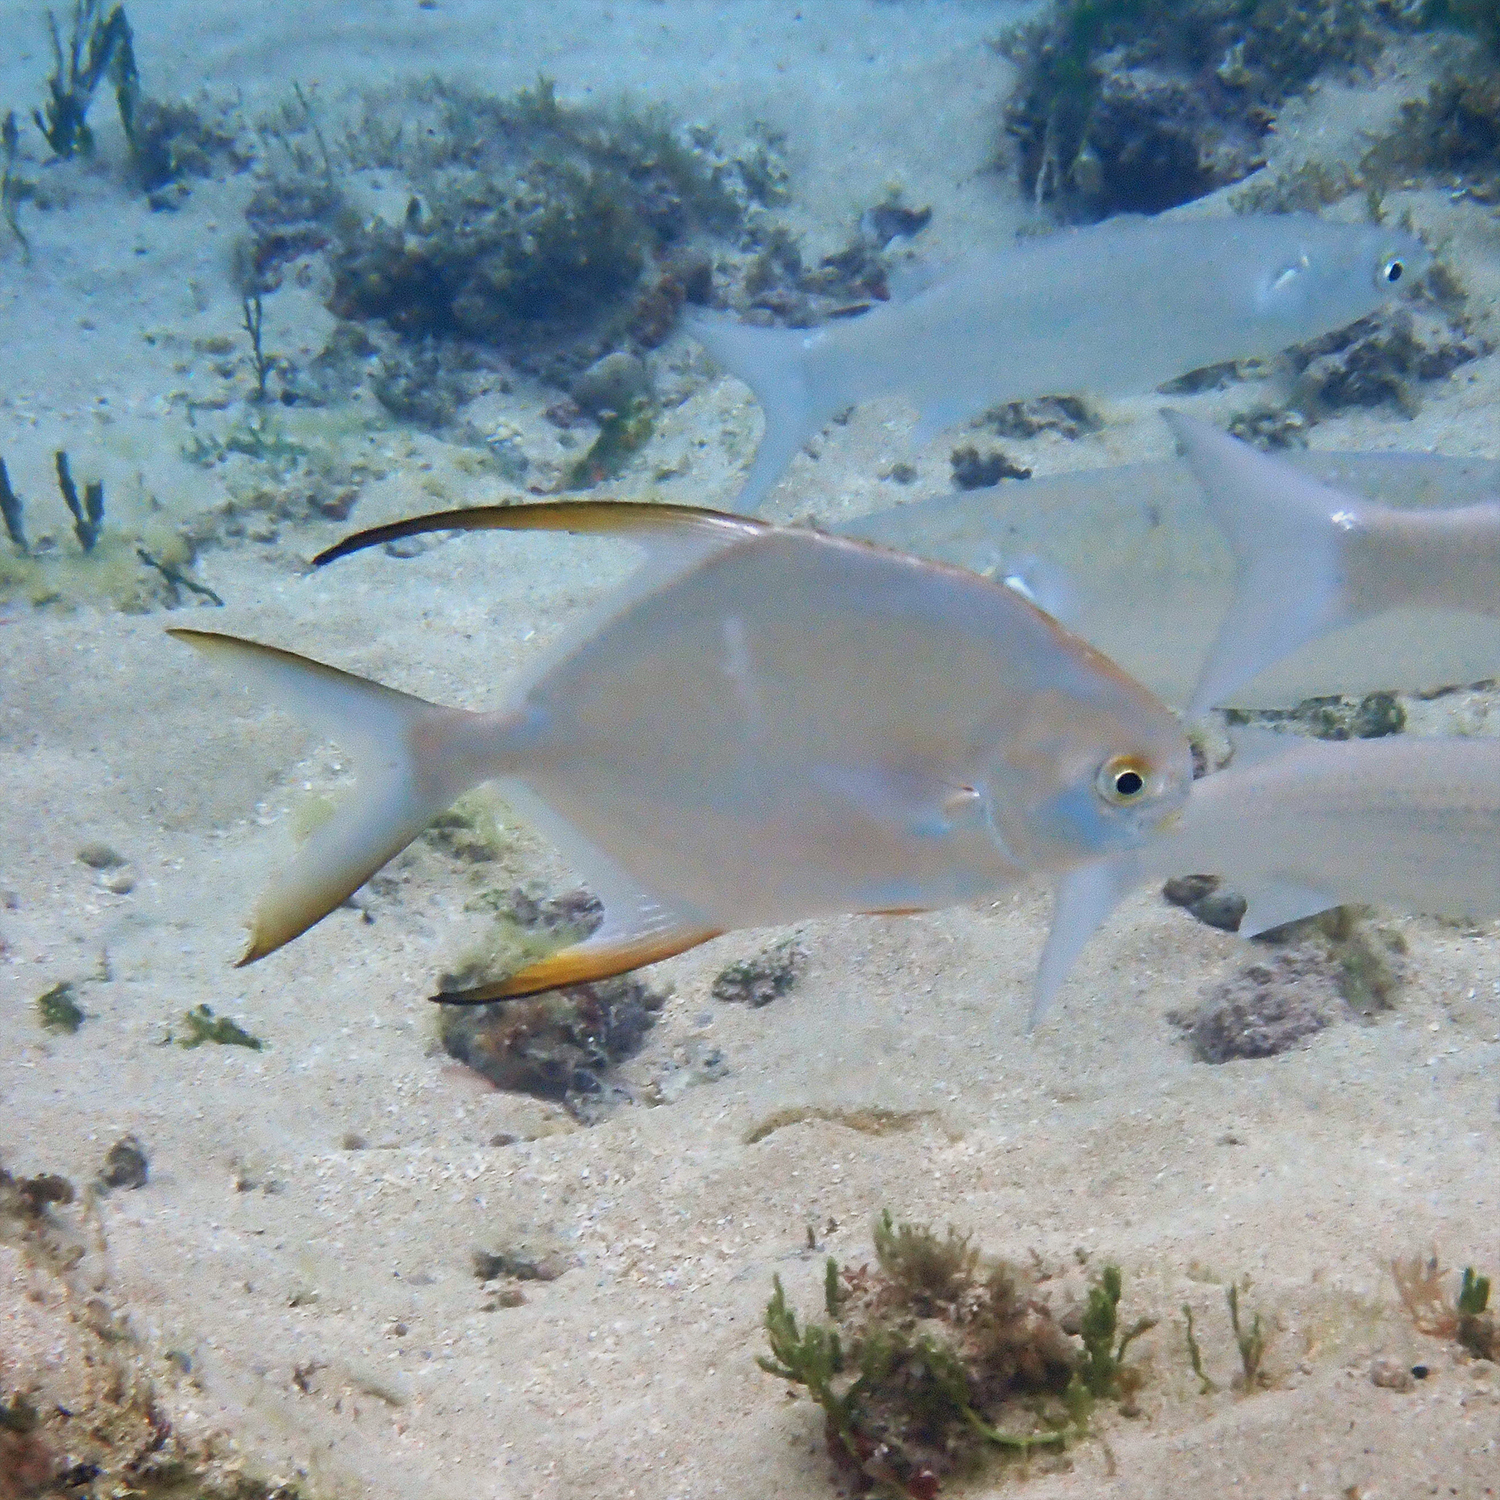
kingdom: Animalia
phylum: Chordata
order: Perciformes
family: Carangidae
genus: Trachinotus
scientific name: Trachinotus blochii
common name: Snubnose pompano
